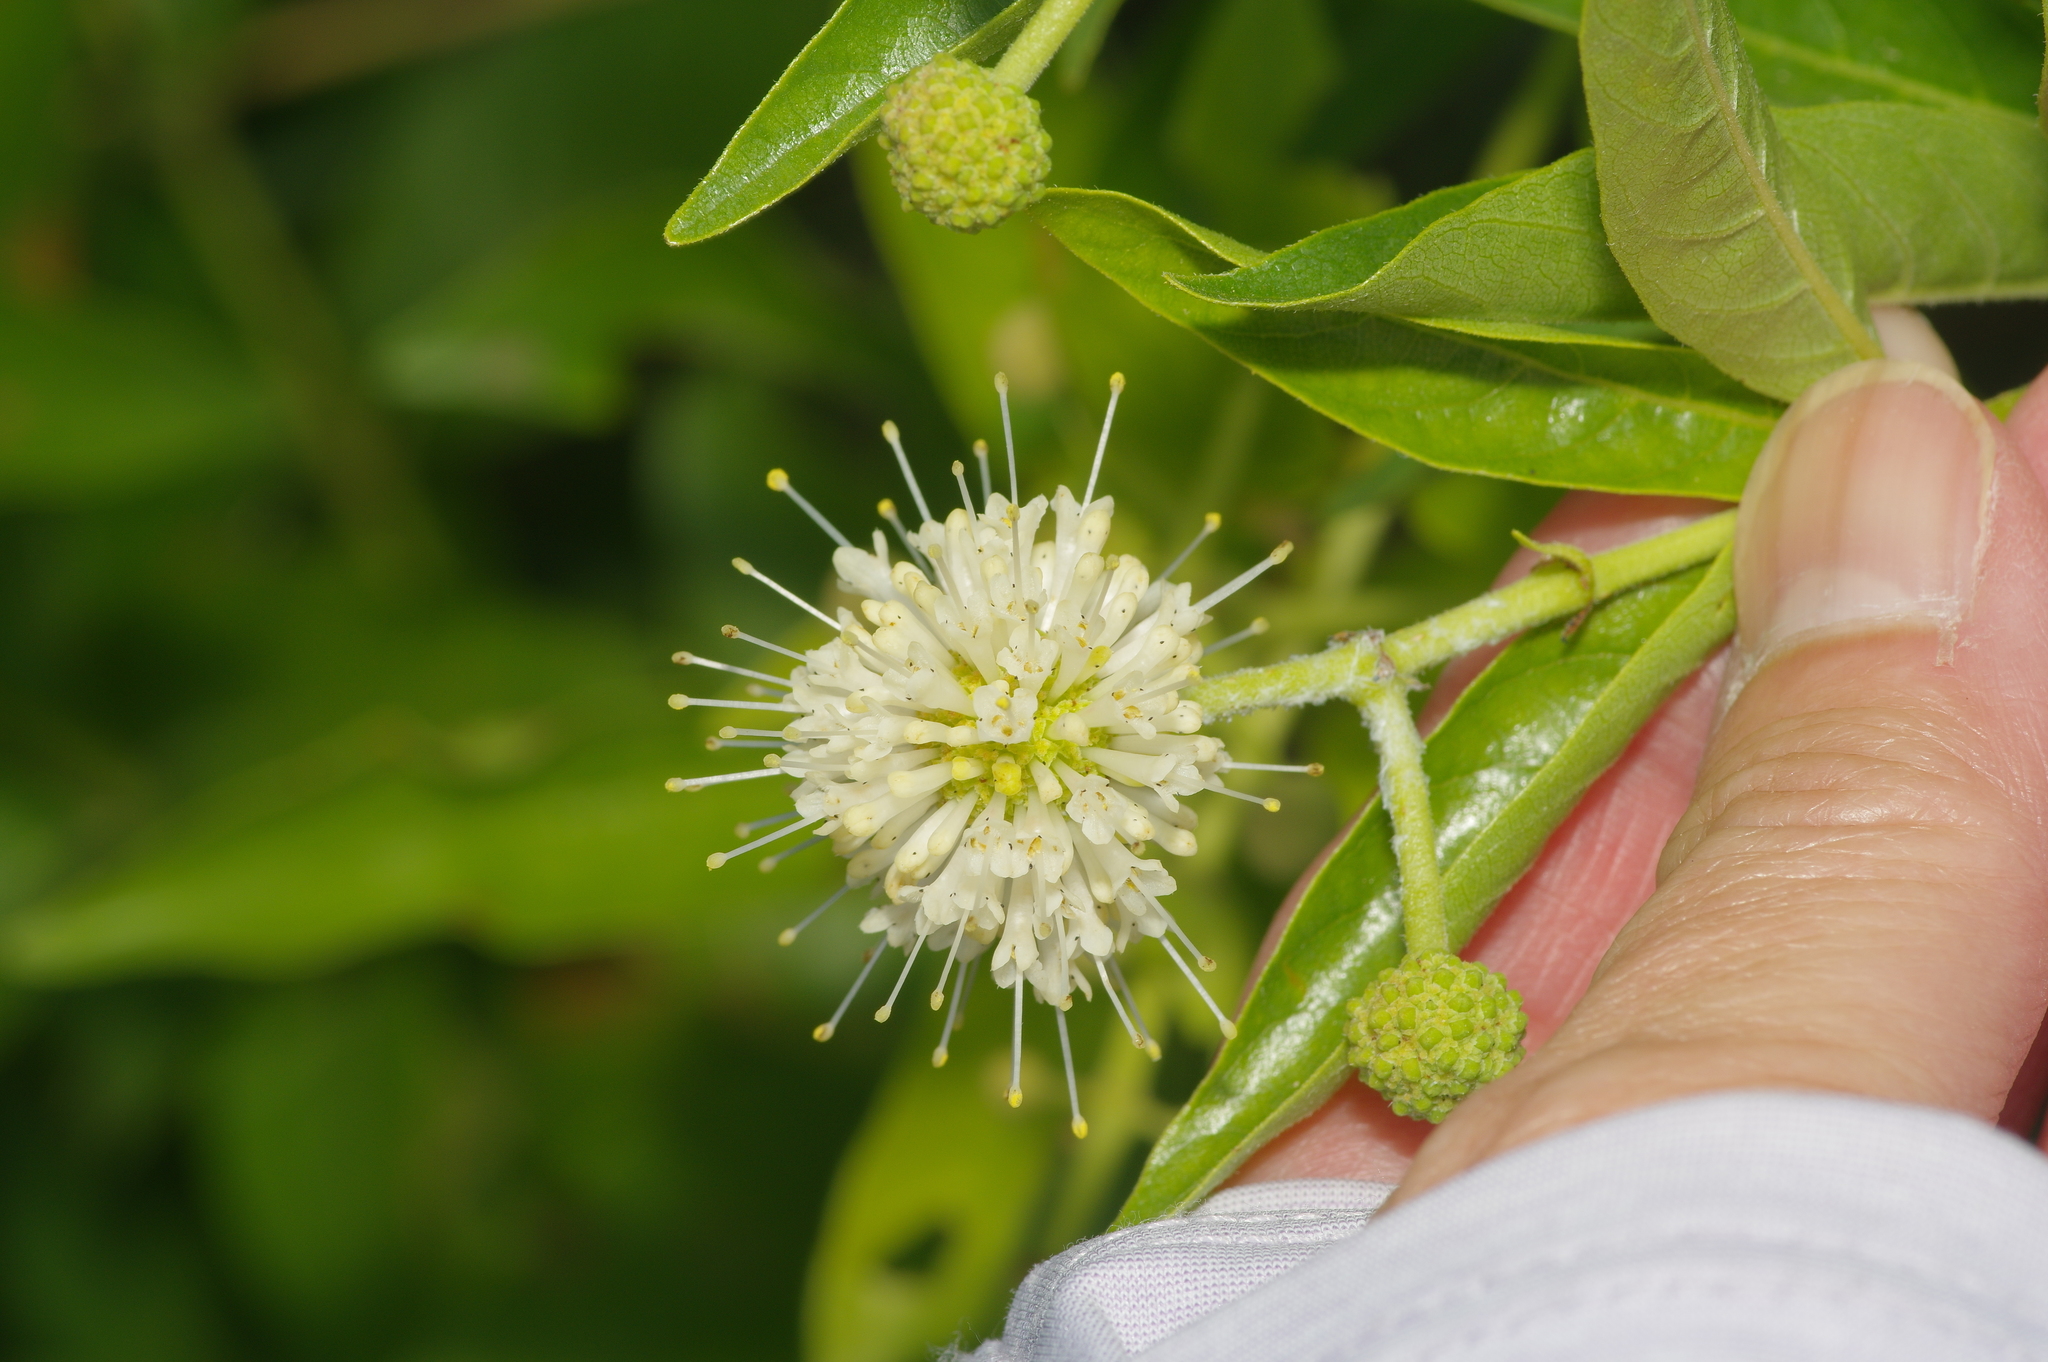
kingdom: Plantae
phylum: Tracheophyta
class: Magnoliopsida
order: Gentianales
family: Rubiaceae
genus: Cephalanthus
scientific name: Cephalanthus occidentalis
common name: Button-willow
